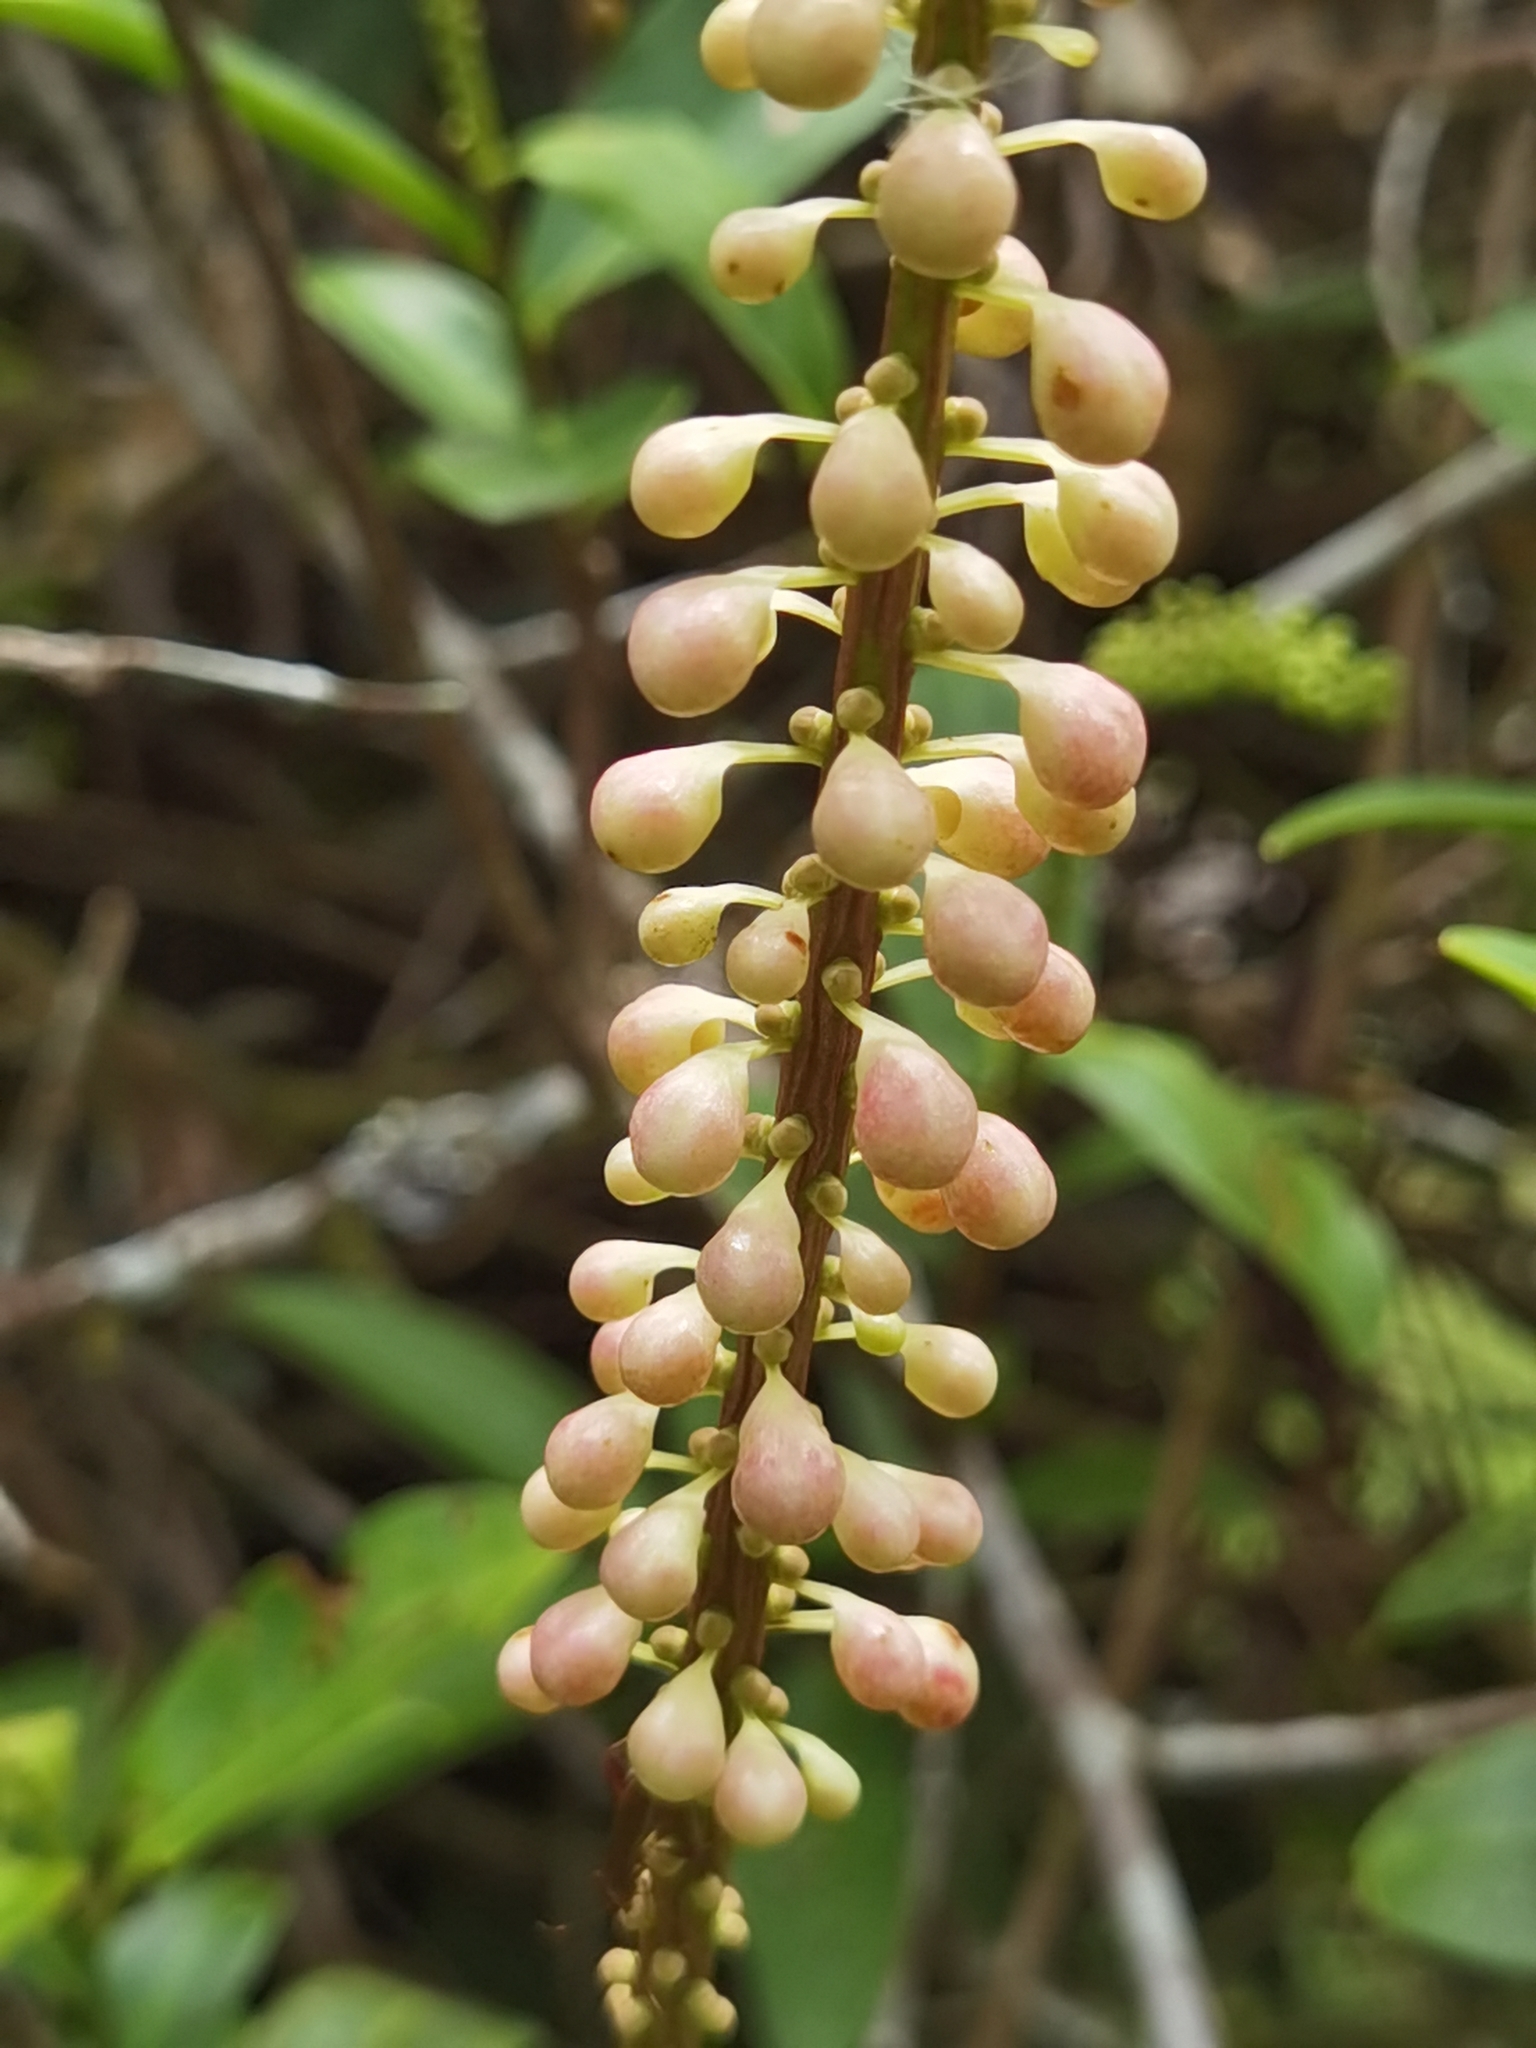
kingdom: Plantae
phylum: Tracheophyta
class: Magnoliopsida
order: Ericales
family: Marcgraviaceae
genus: Sarcopera
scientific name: Sarcopera sessiliflora
